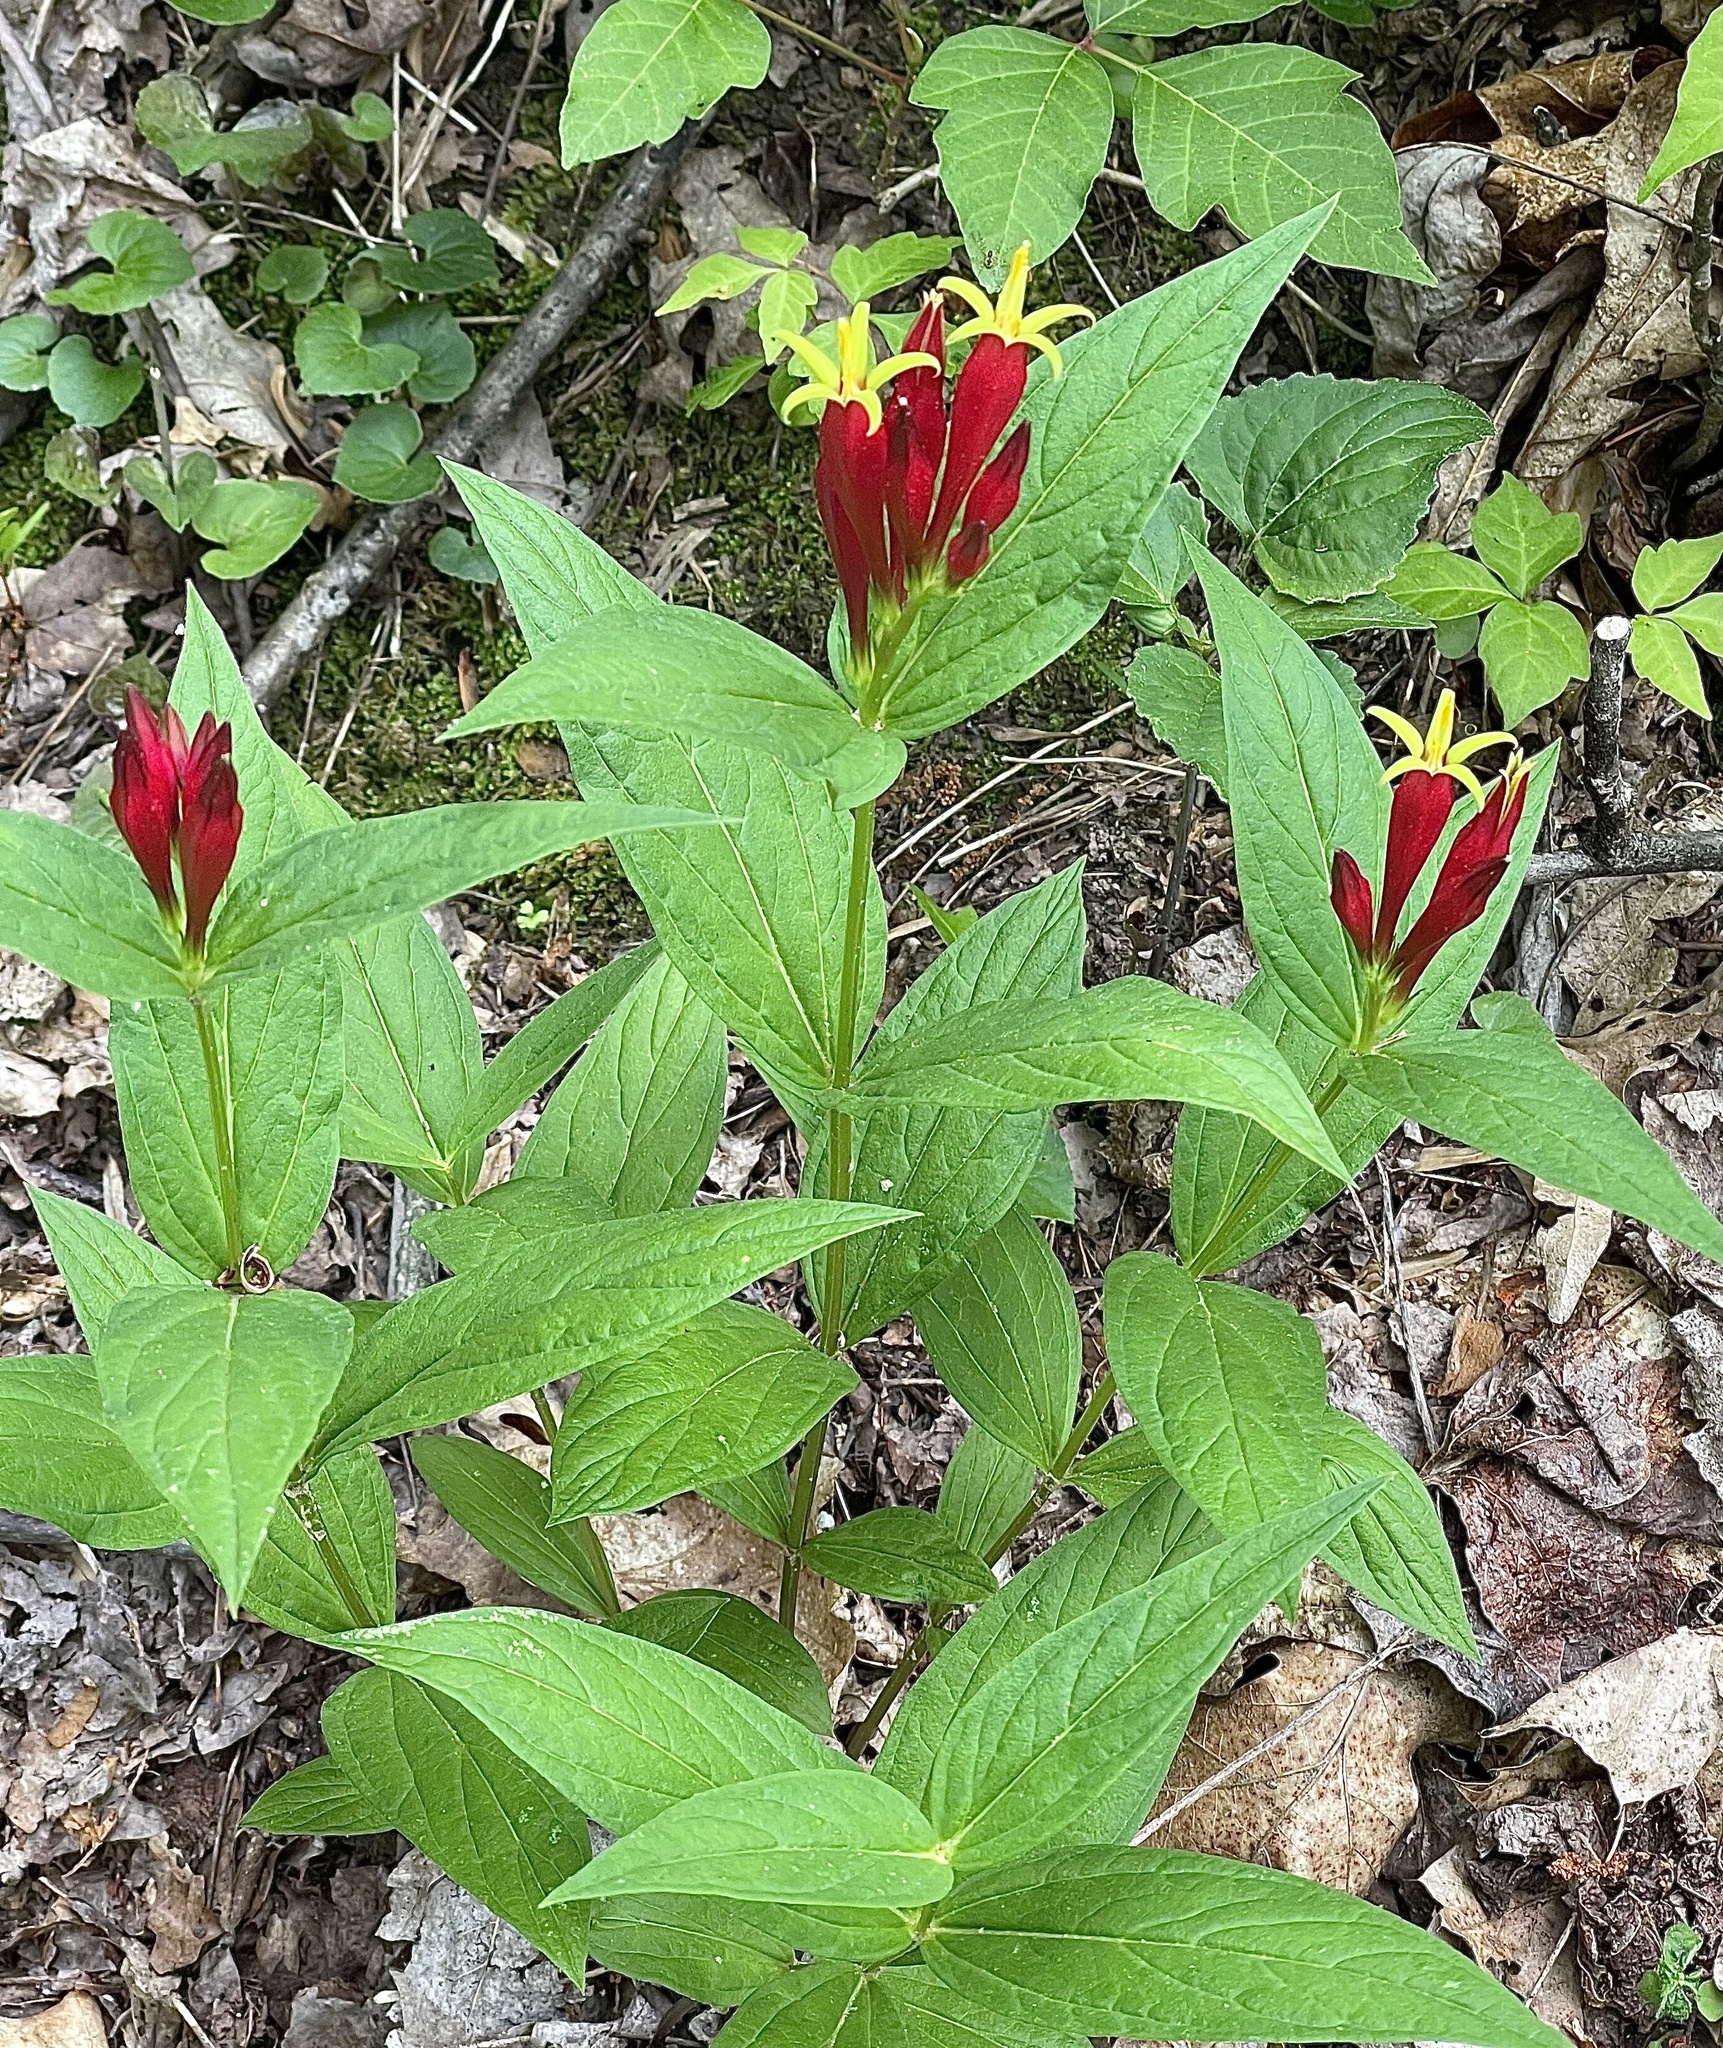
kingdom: Plantae
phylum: Tracheophyta
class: Magnoliopsida
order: Gentianales
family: Loganiaceae
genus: Spigelia
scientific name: Spigelia marilandica
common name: Indian-pink
